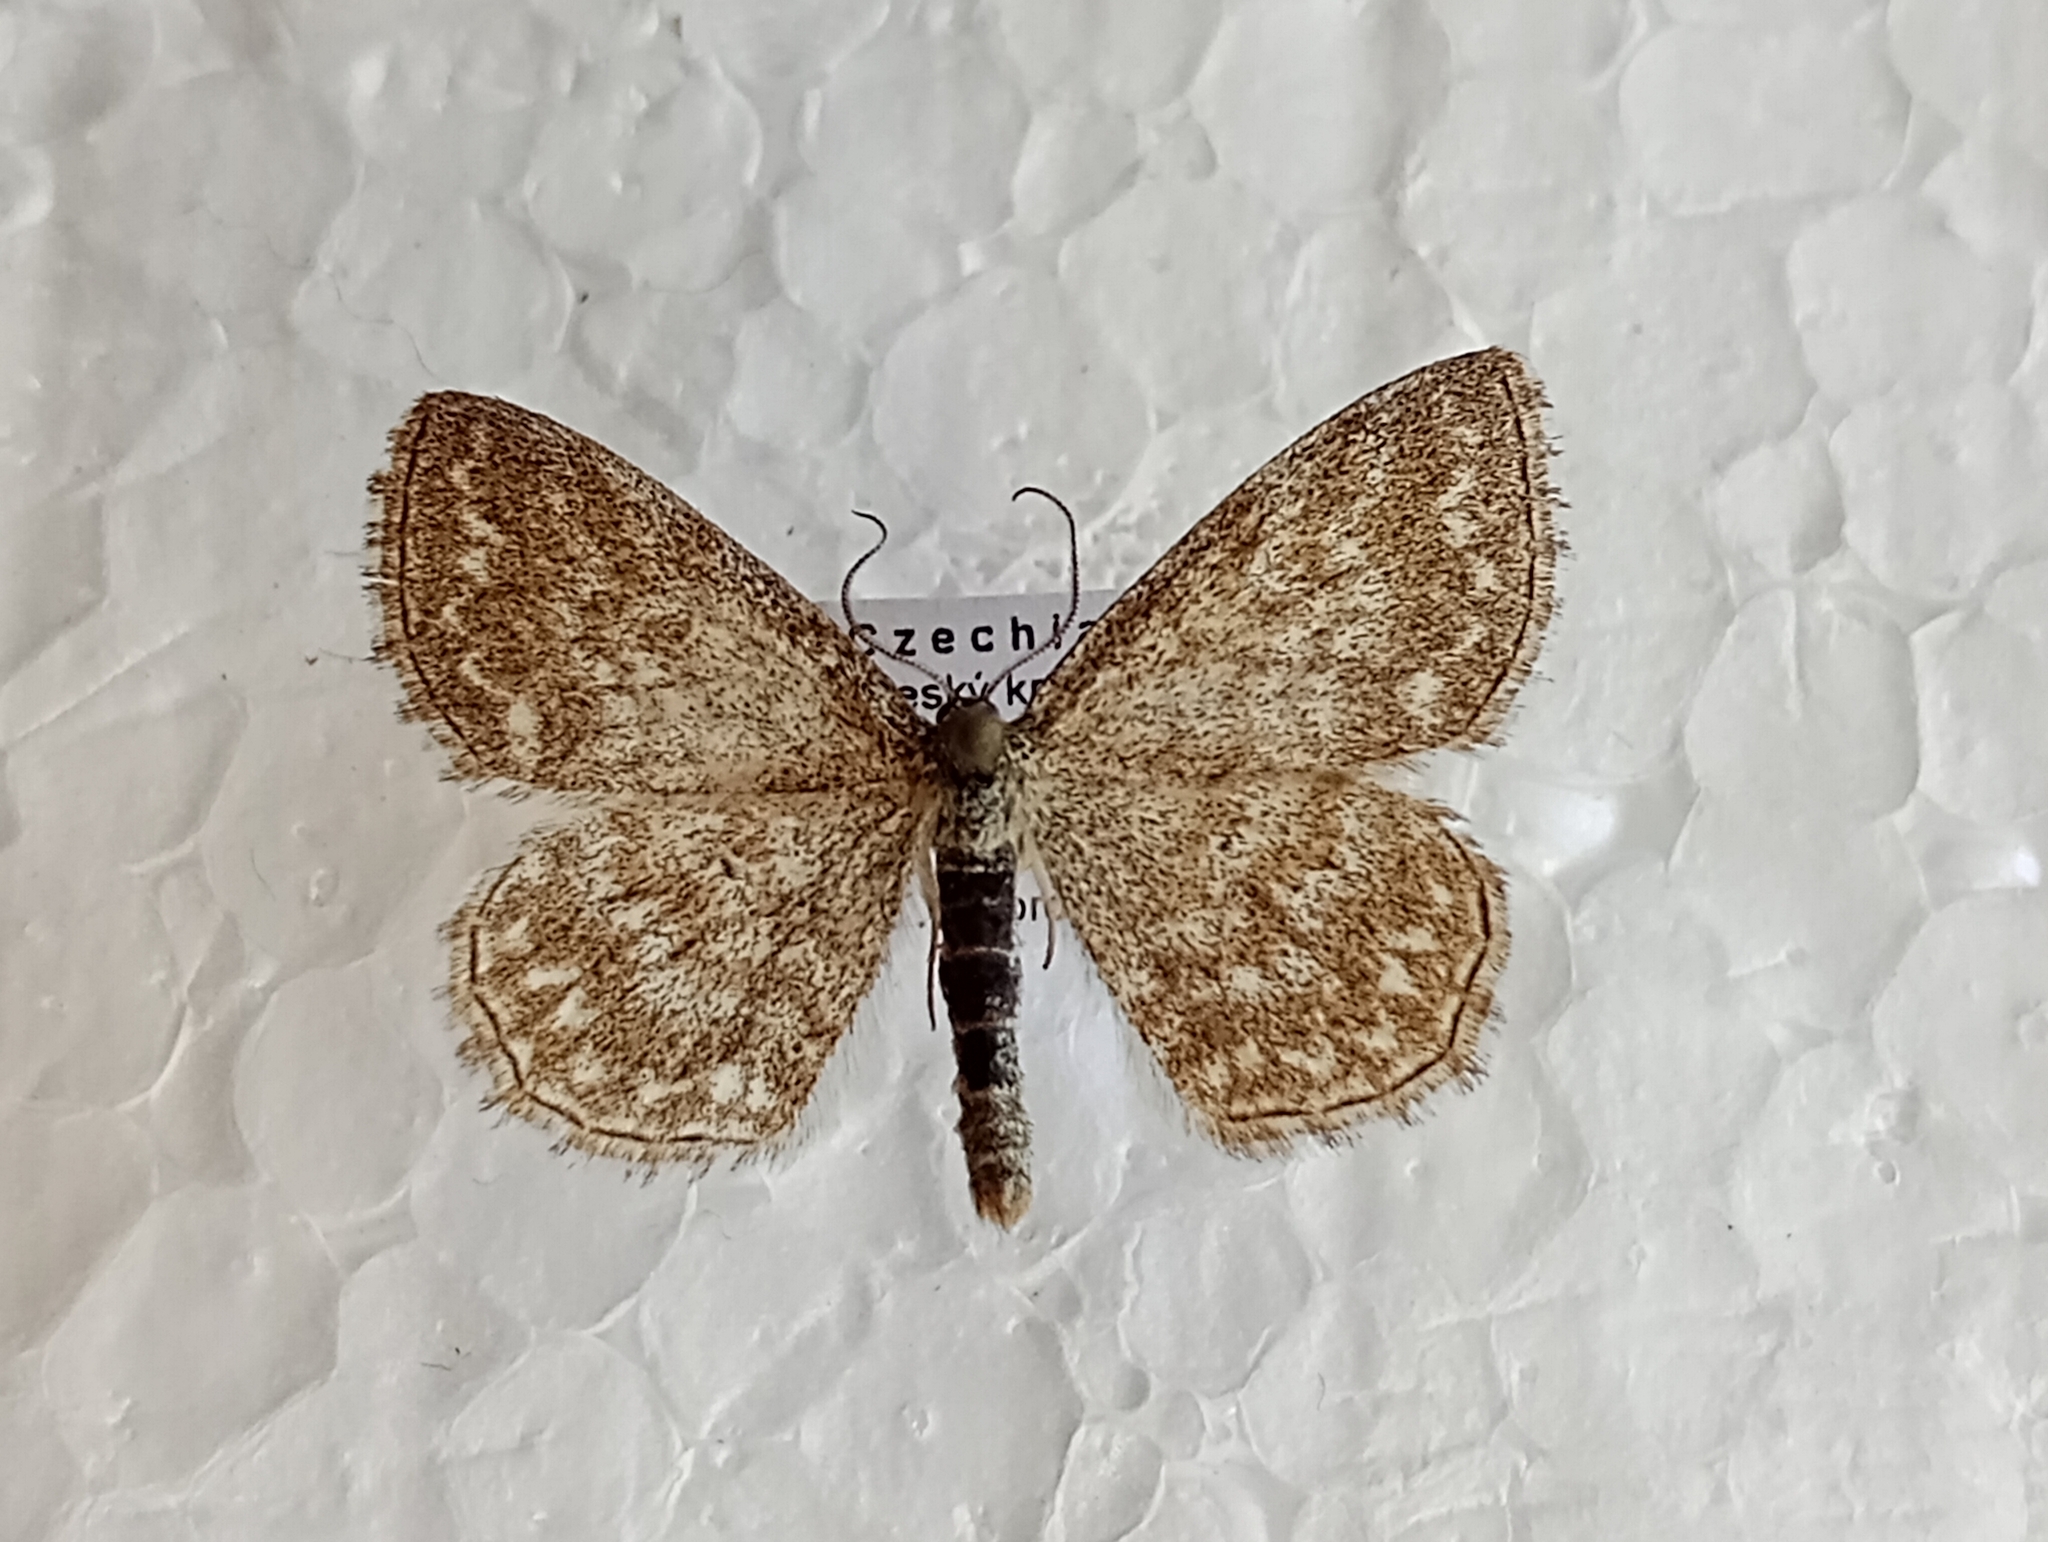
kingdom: Animalia
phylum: Arthropoda
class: Insecta
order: Lepidoptera
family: Geometridae
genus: Scopula
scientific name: Scopula immorata
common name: Lewes wave
